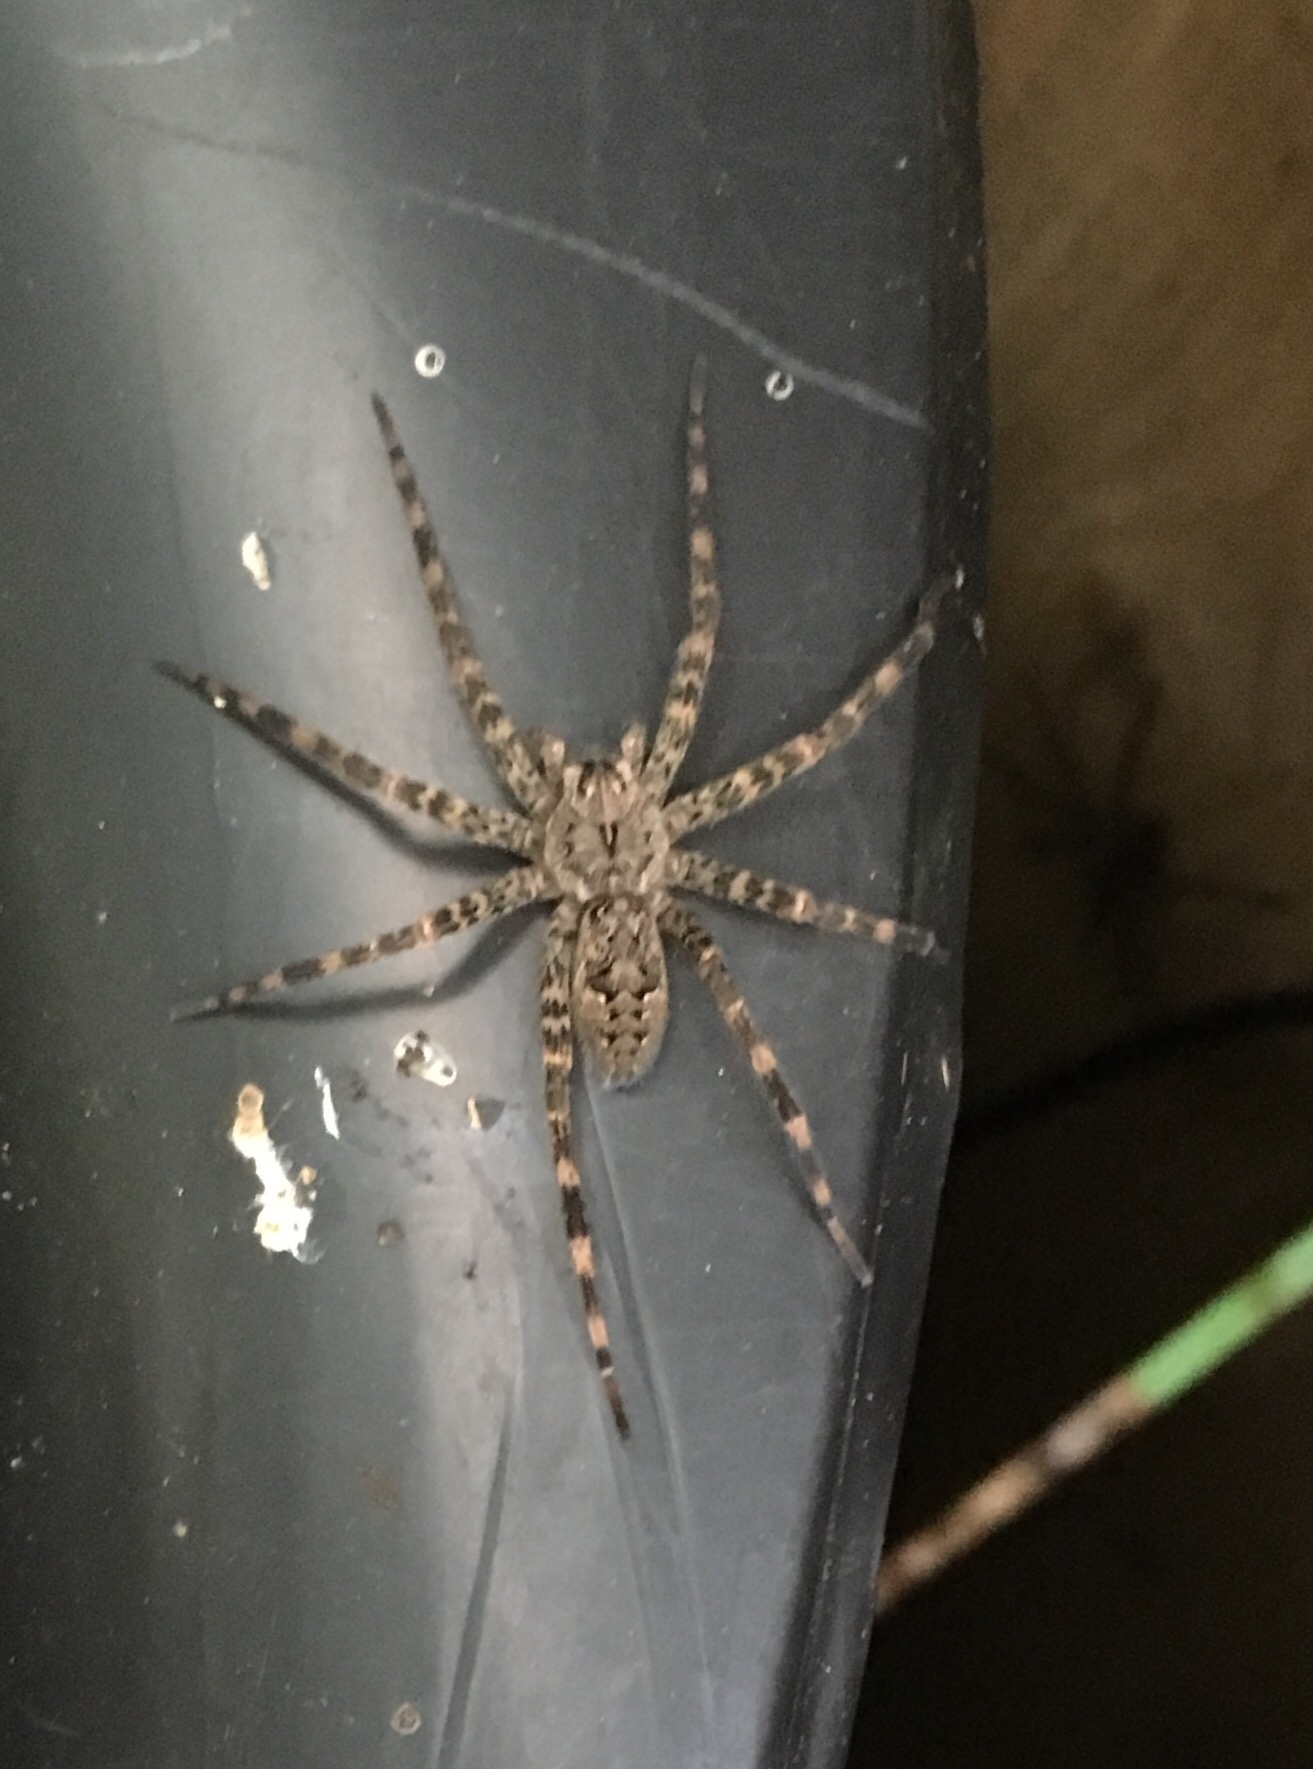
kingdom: Animalia
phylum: Arthropoda
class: Arachnida
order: Araneae
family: Pisauridae
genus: Dolomedes
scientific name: Dolomedes tenebrosus
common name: Dark fishing spider
